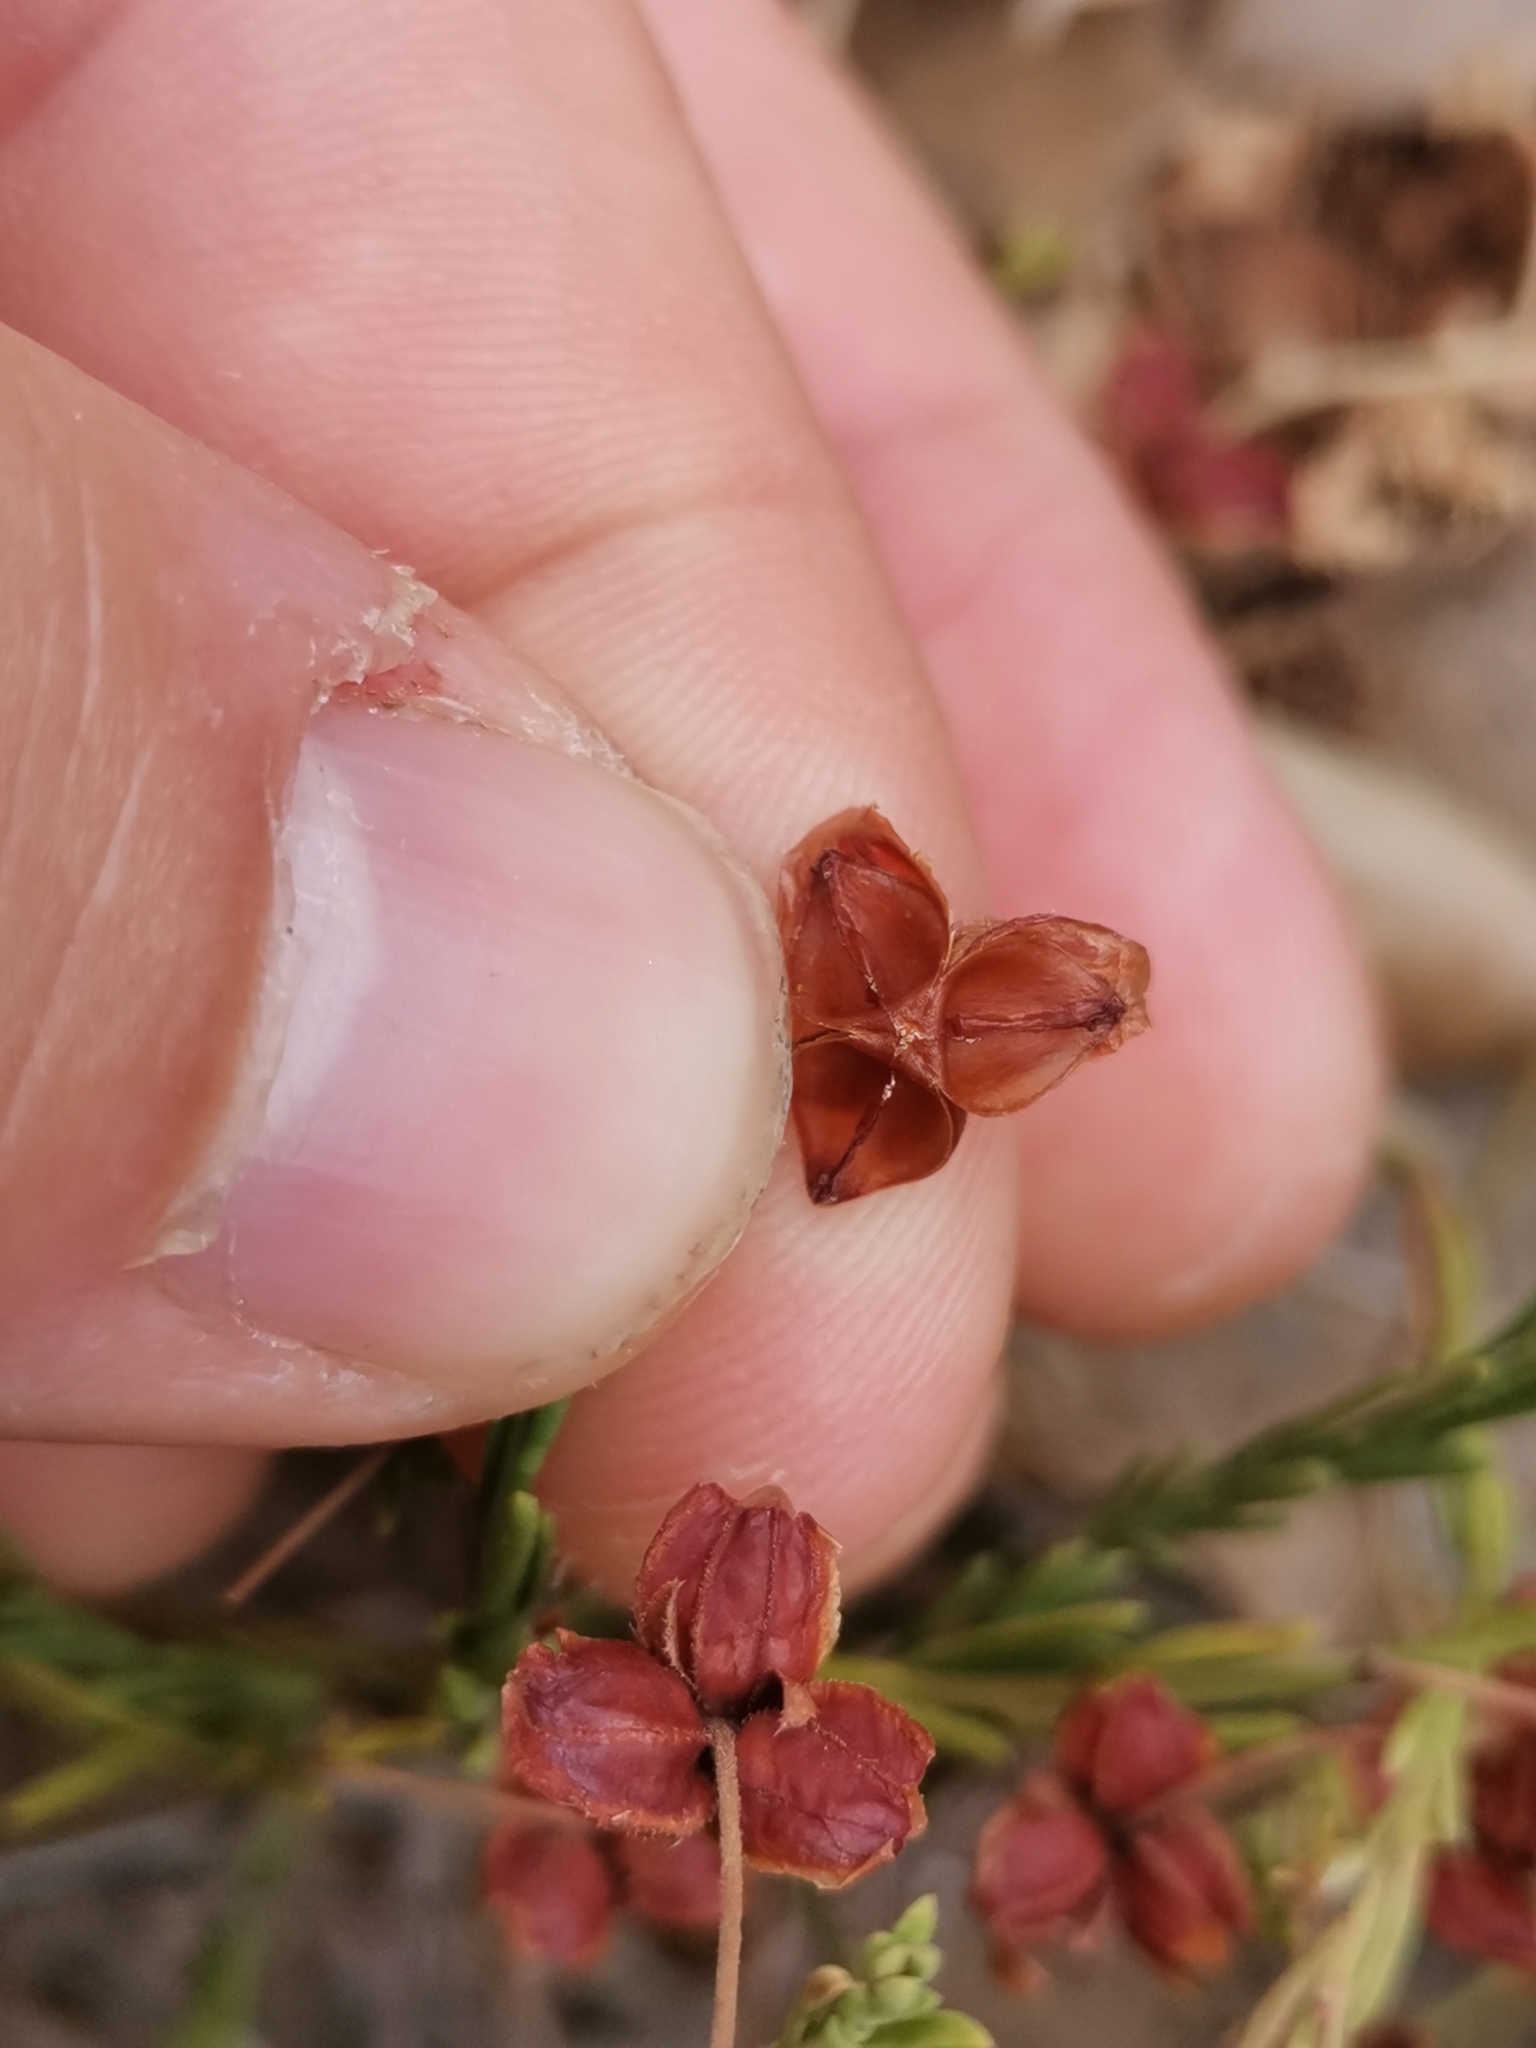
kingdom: Plantae
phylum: Tracheophyta
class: Magnoliopsida
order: Malvales
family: Cistaceae
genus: Fumana
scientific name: Fumana procumbens
